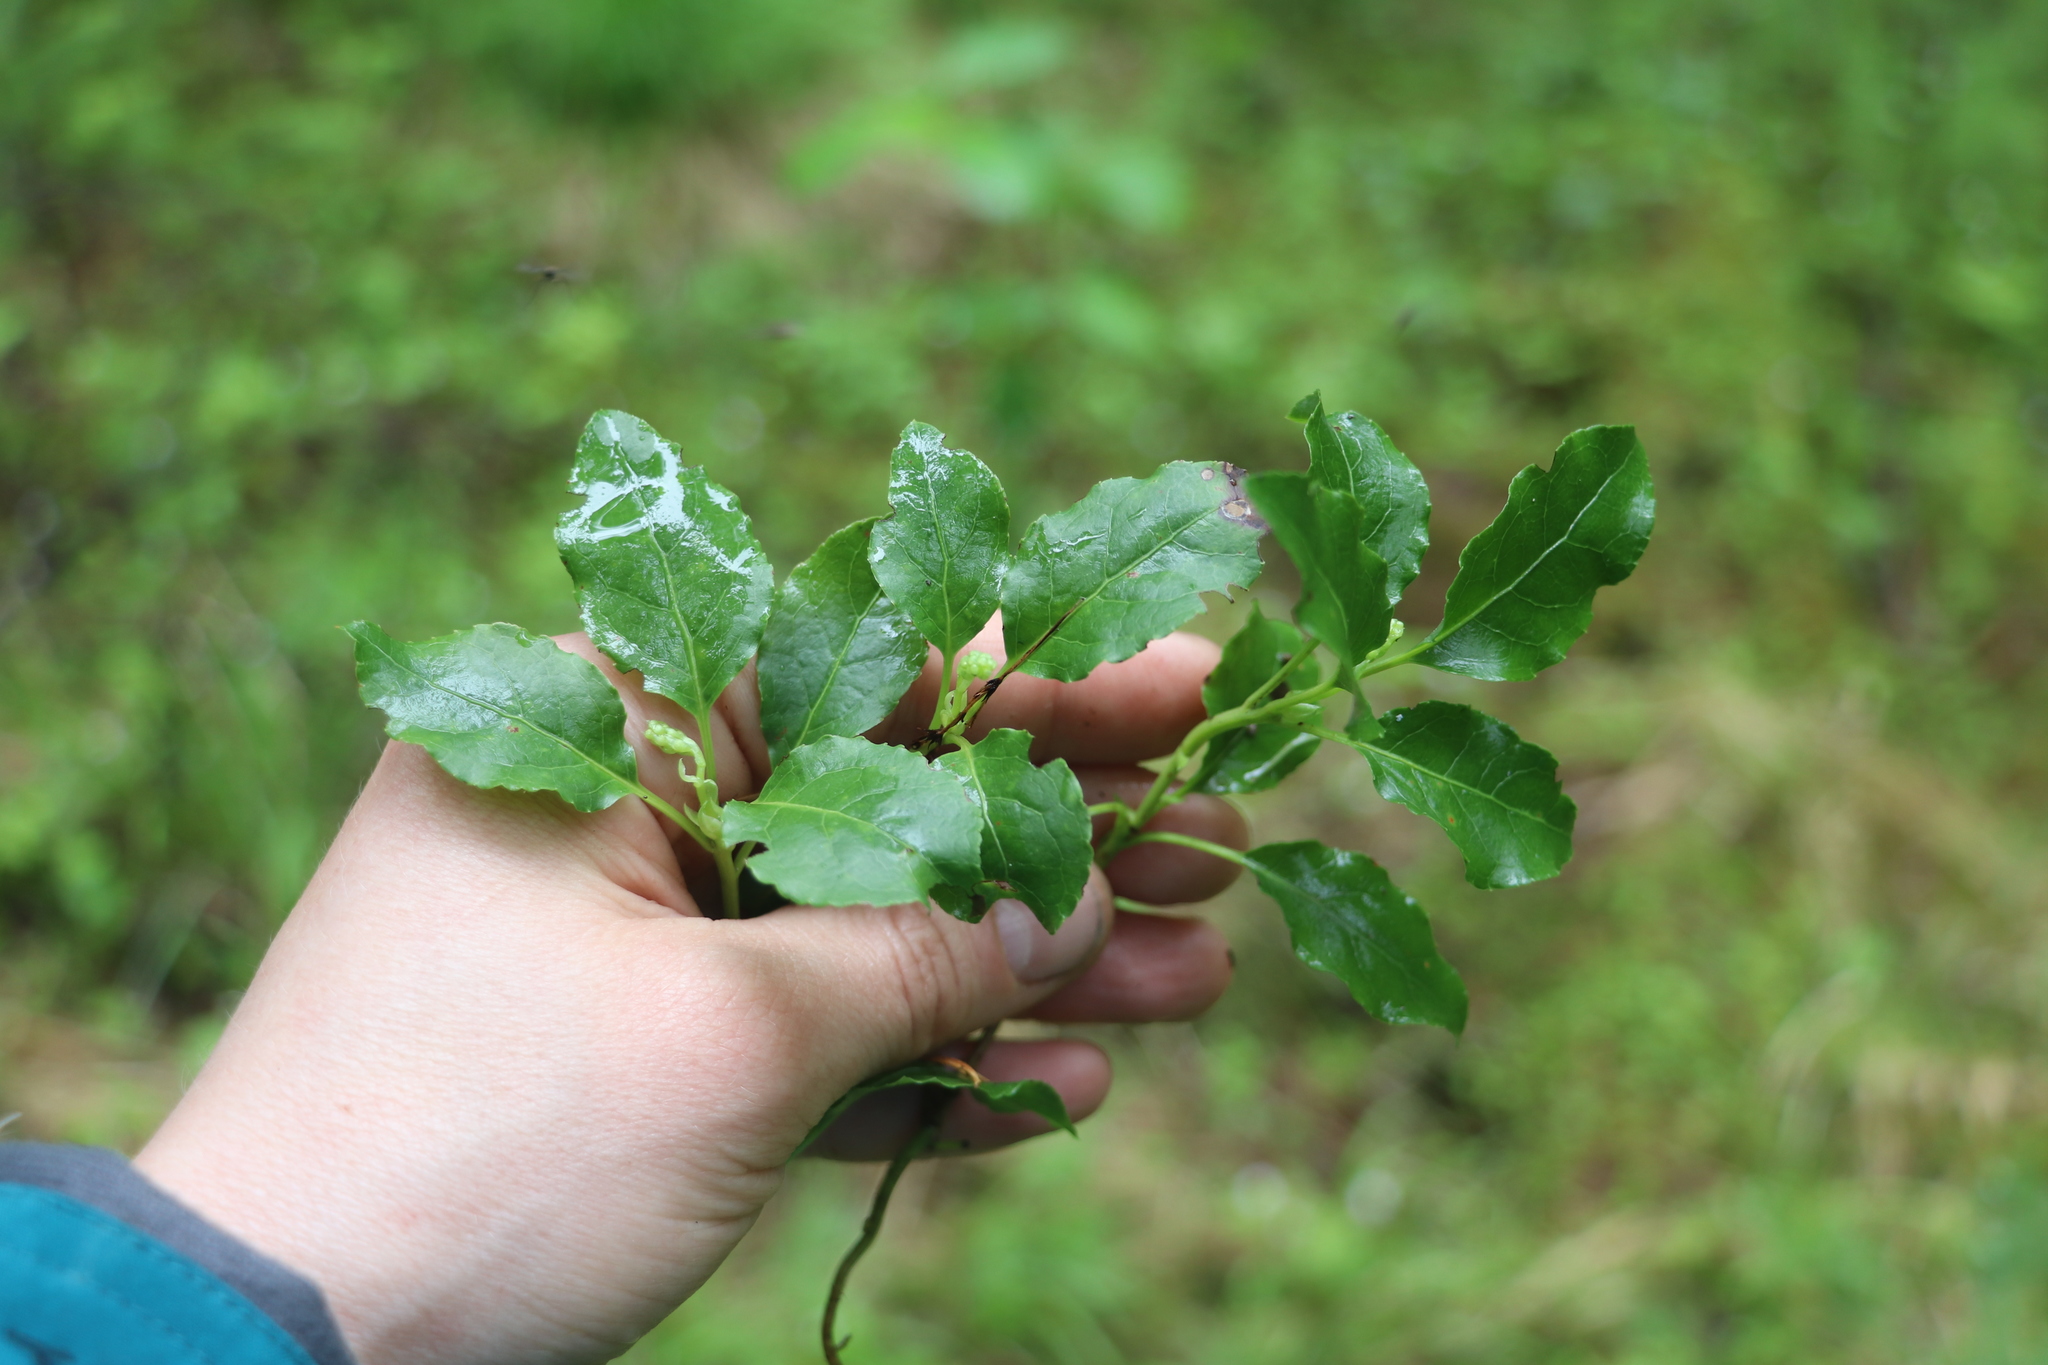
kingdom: Plantae
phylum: Tracheophyta
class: Magnoliopsida
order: Ericales
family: Ericaceae
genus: Orthilia
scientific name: Orthilia secunda
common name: One-sided orthilia
